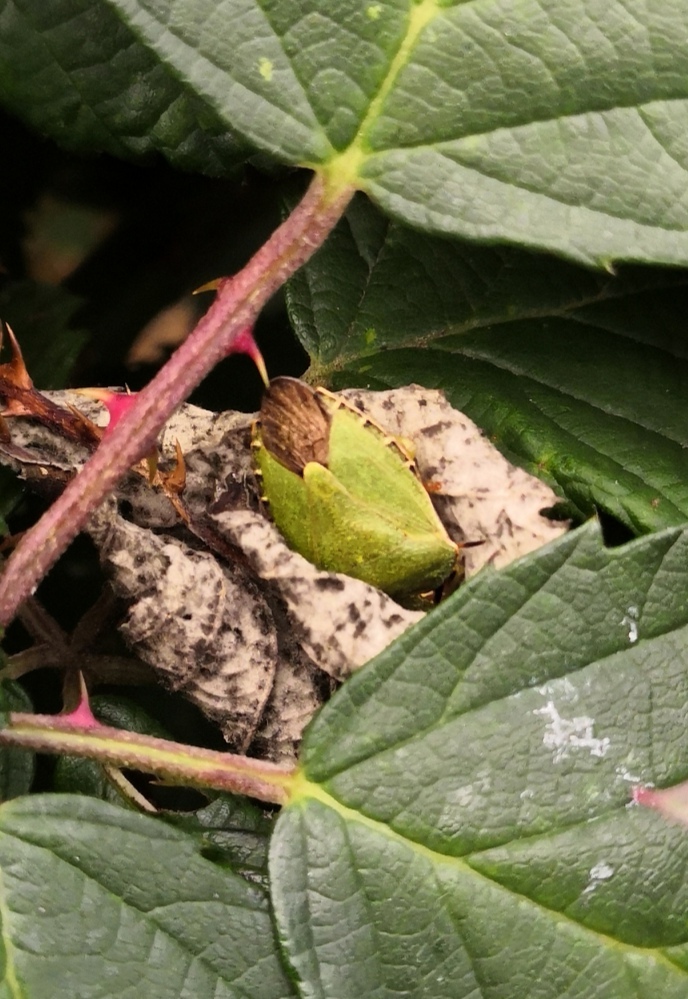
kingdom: Animalia
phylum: Arthropoda
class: Insecta
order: Hemiptera
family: Pentatomidae
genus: Palomena
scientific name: Palomena prasina
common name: Green shieldbug
